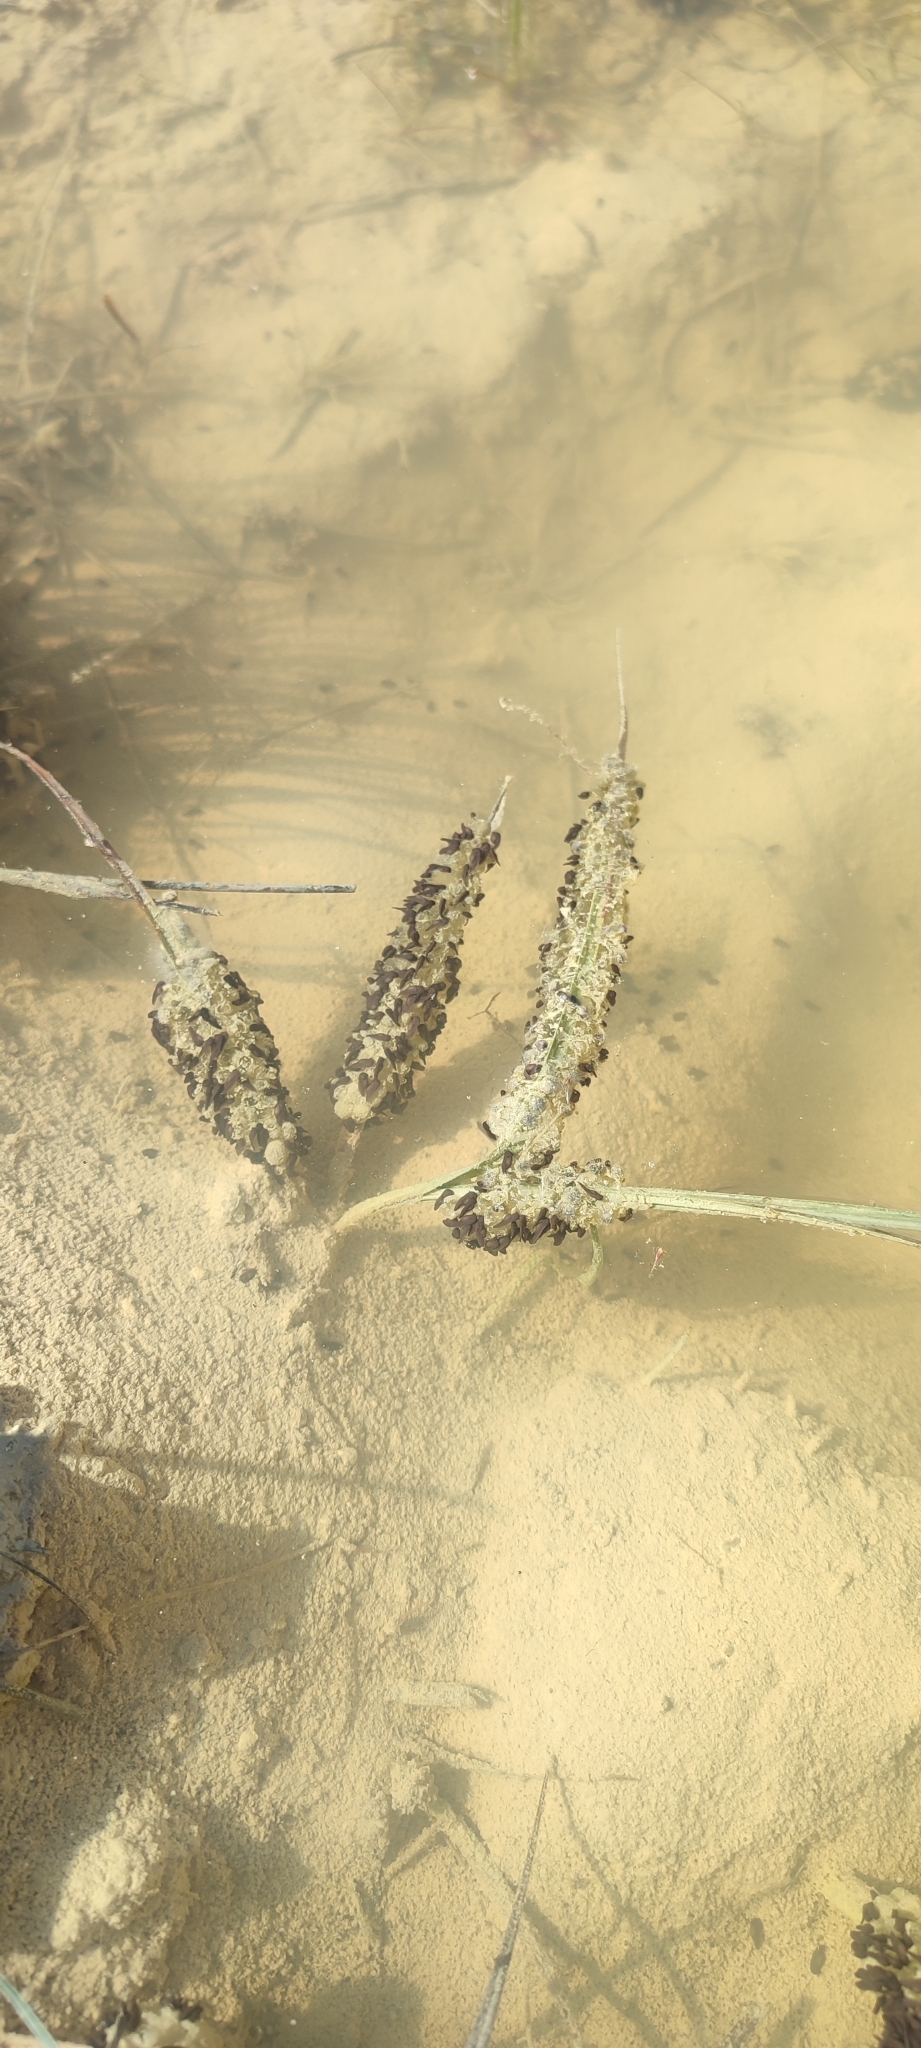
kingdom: Animalia
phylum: Chordata
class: Amphibia
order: Anura
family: Pelodytidae
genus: Pelodytes
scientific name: Pelodytes punctatus
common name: Parsley frog
